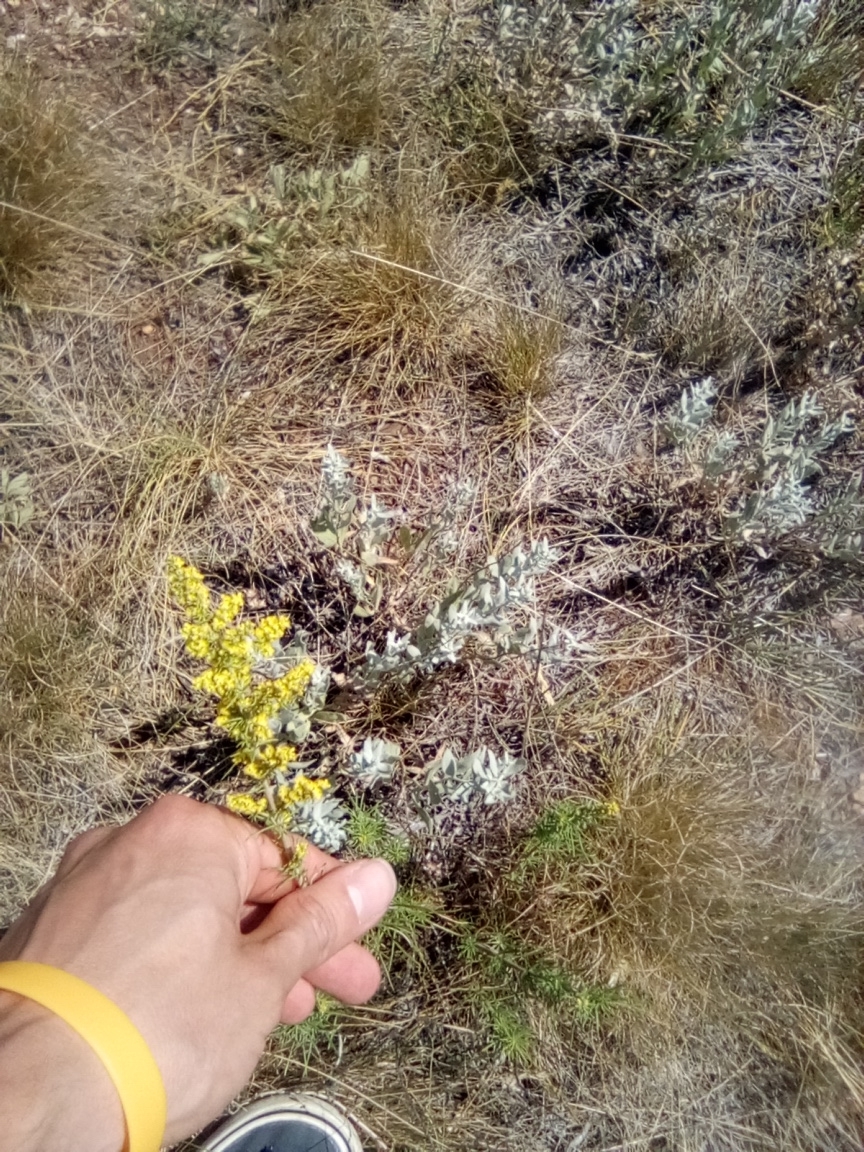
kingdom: Plantae
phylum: Tracheophyta
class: Magnoliopsida
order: Gentianales
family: Rubiaceae
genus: Galium
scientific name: Galium verum
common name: Lady's bedstraw
